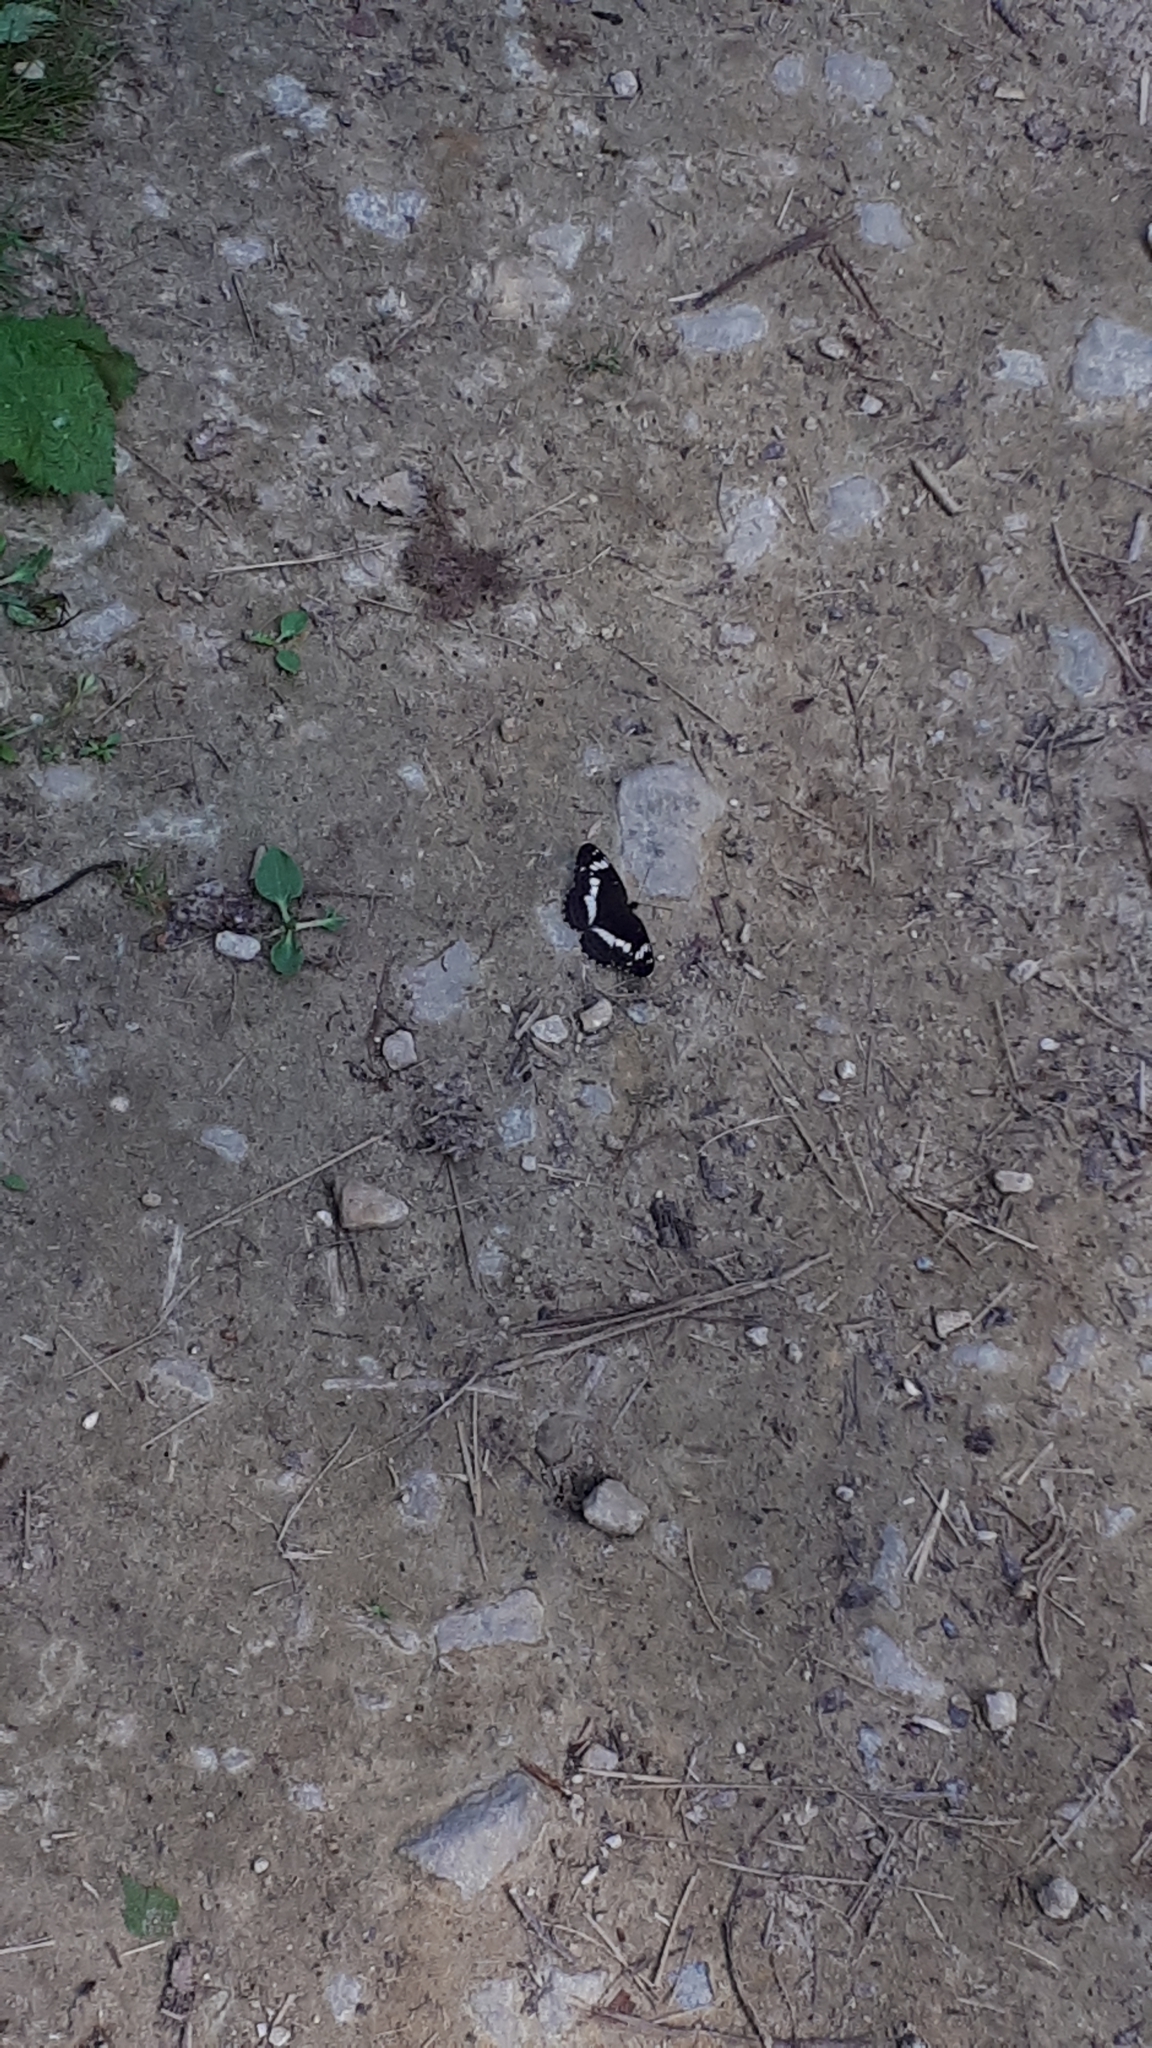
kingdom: Animalia
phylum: Arthropoda
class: Insecta
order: Lepidoptera
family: Nymphalidae
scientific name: Nymphalidae
